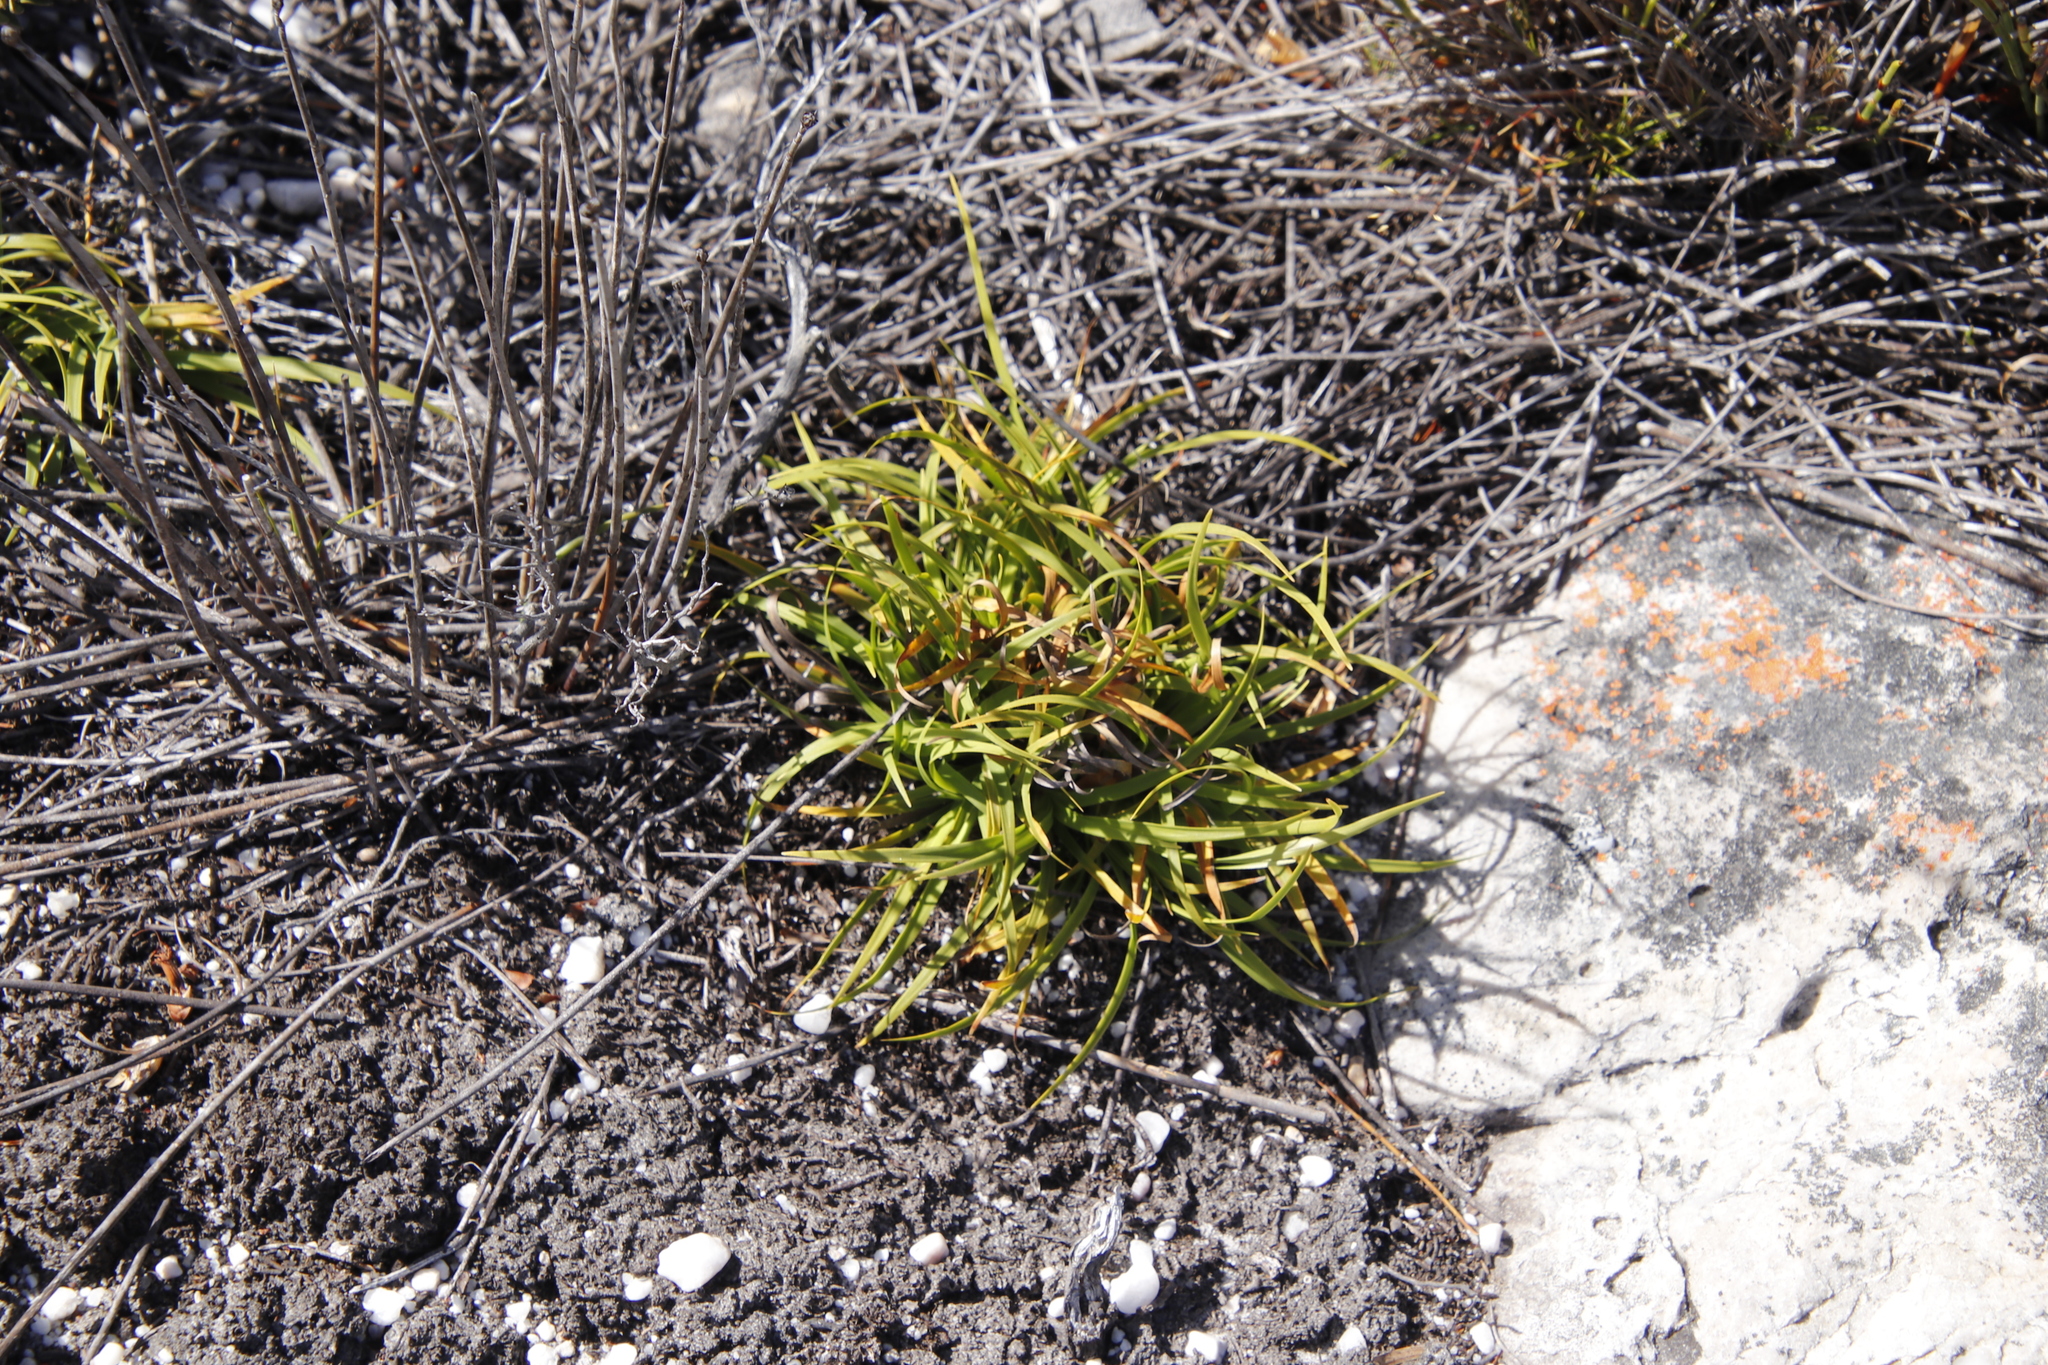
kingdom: Plantae
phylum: Tracheophyta
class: Liliopsida
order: Poales
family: Cyperaceae
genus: Capeobolus
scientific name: Capeobolus brevicaulis
